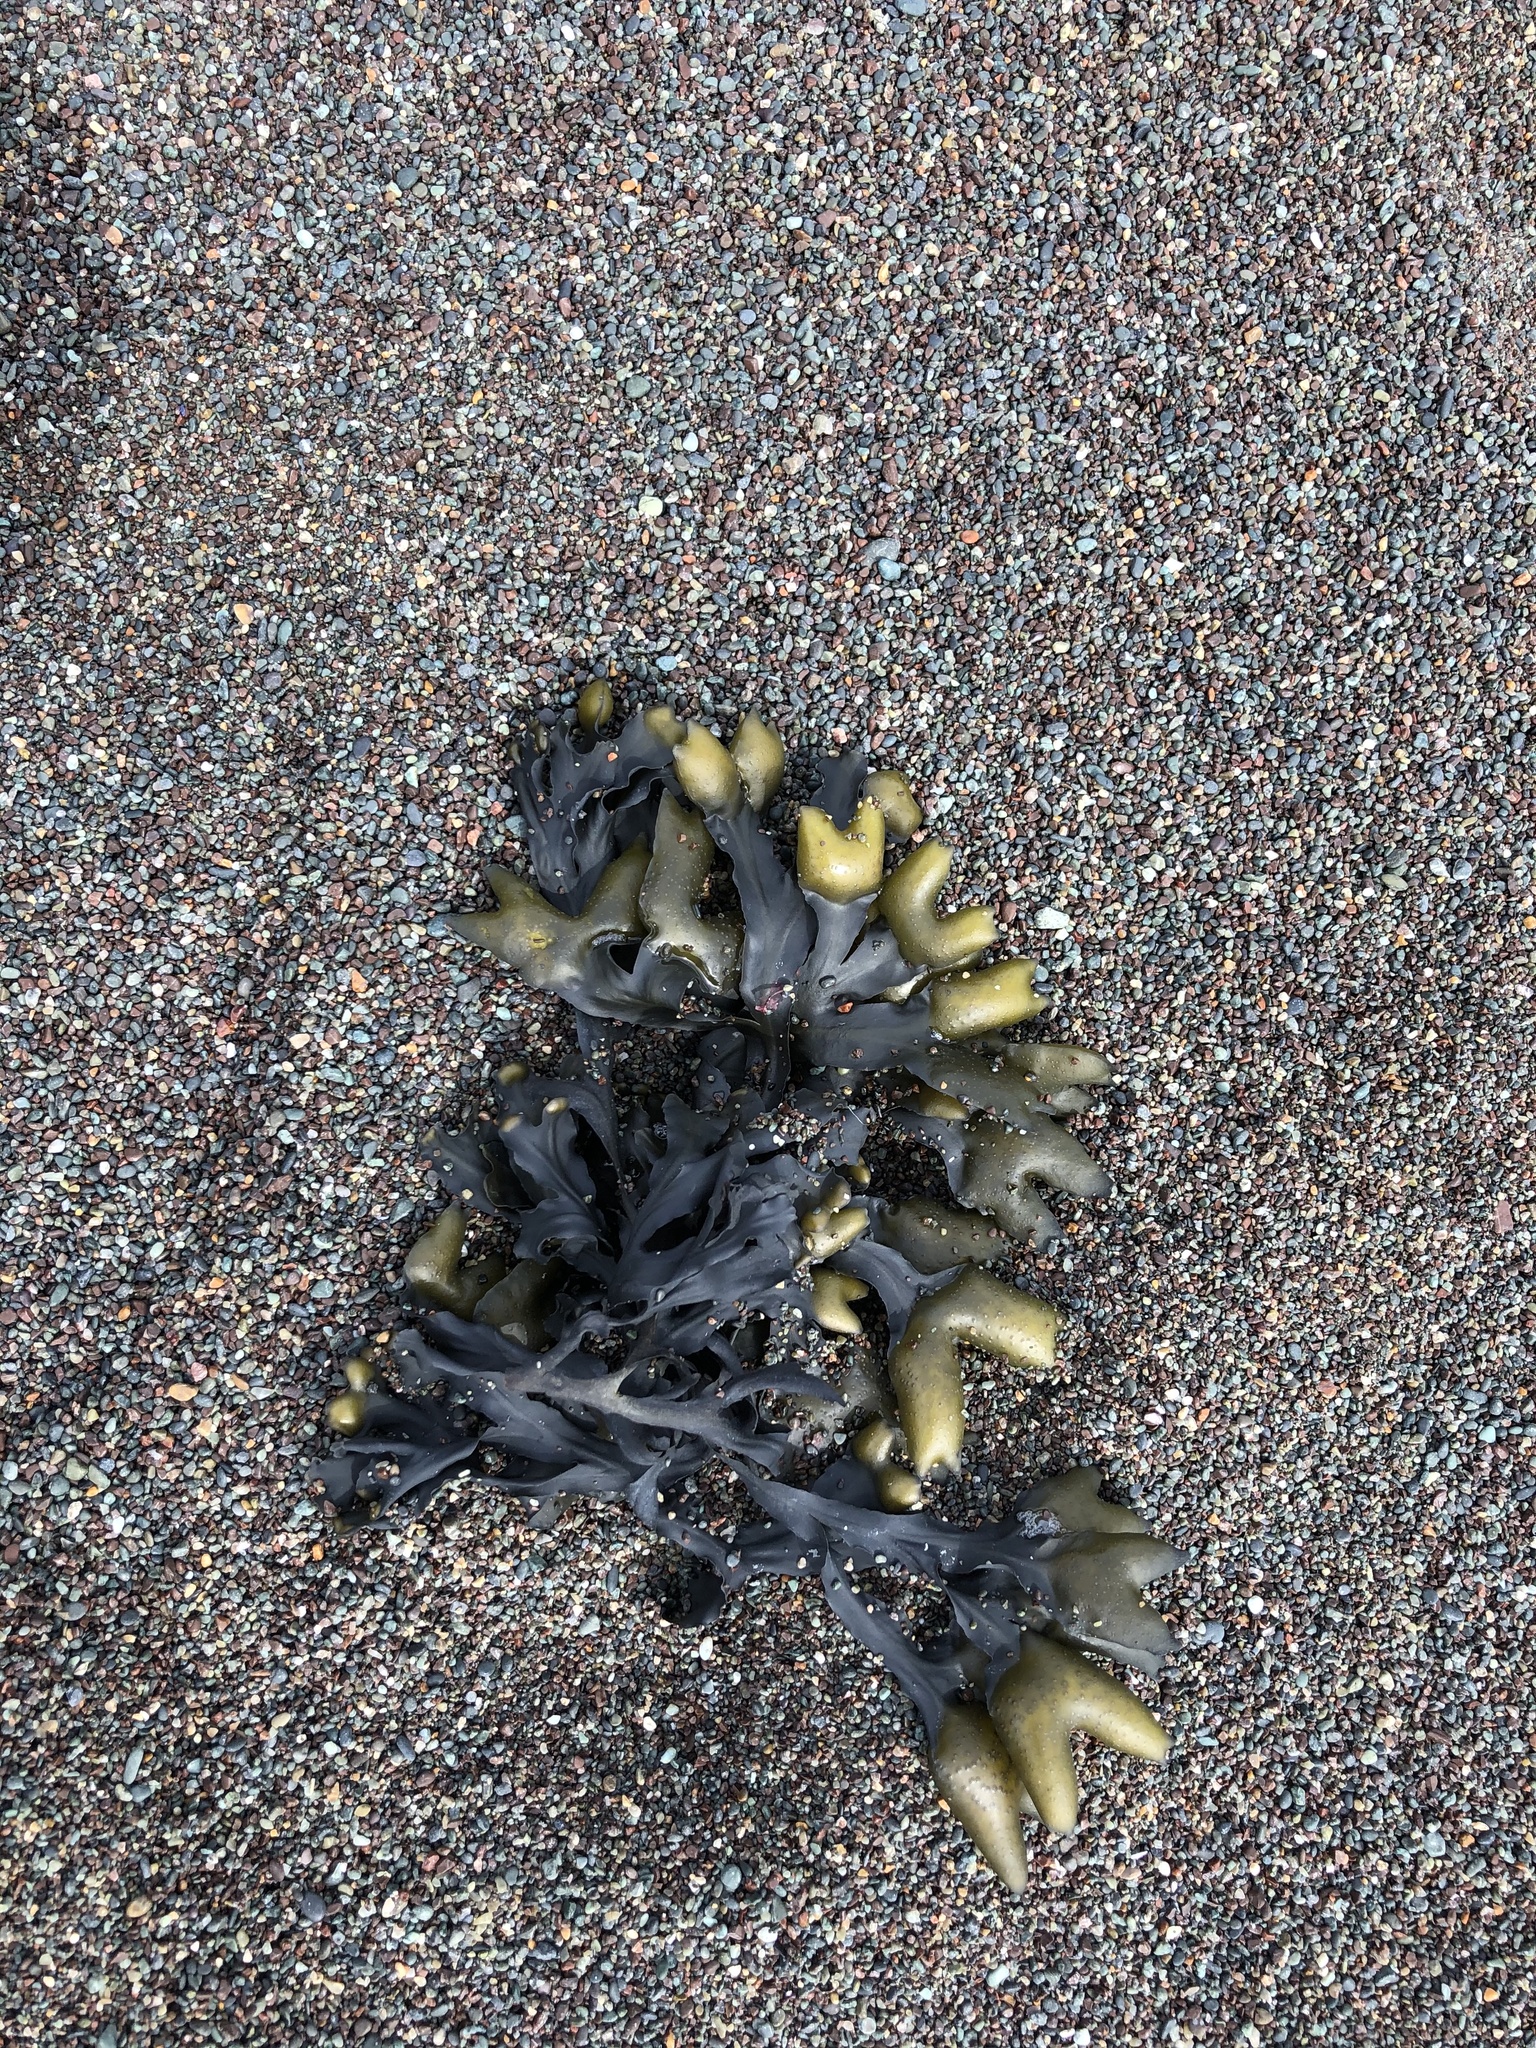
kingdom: Chromista
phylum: Ochrophyta
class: Phaeophyceae
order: Fucales
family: Fucaceae
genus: Fucus
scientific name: Fucus distichus
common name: Rockweed
